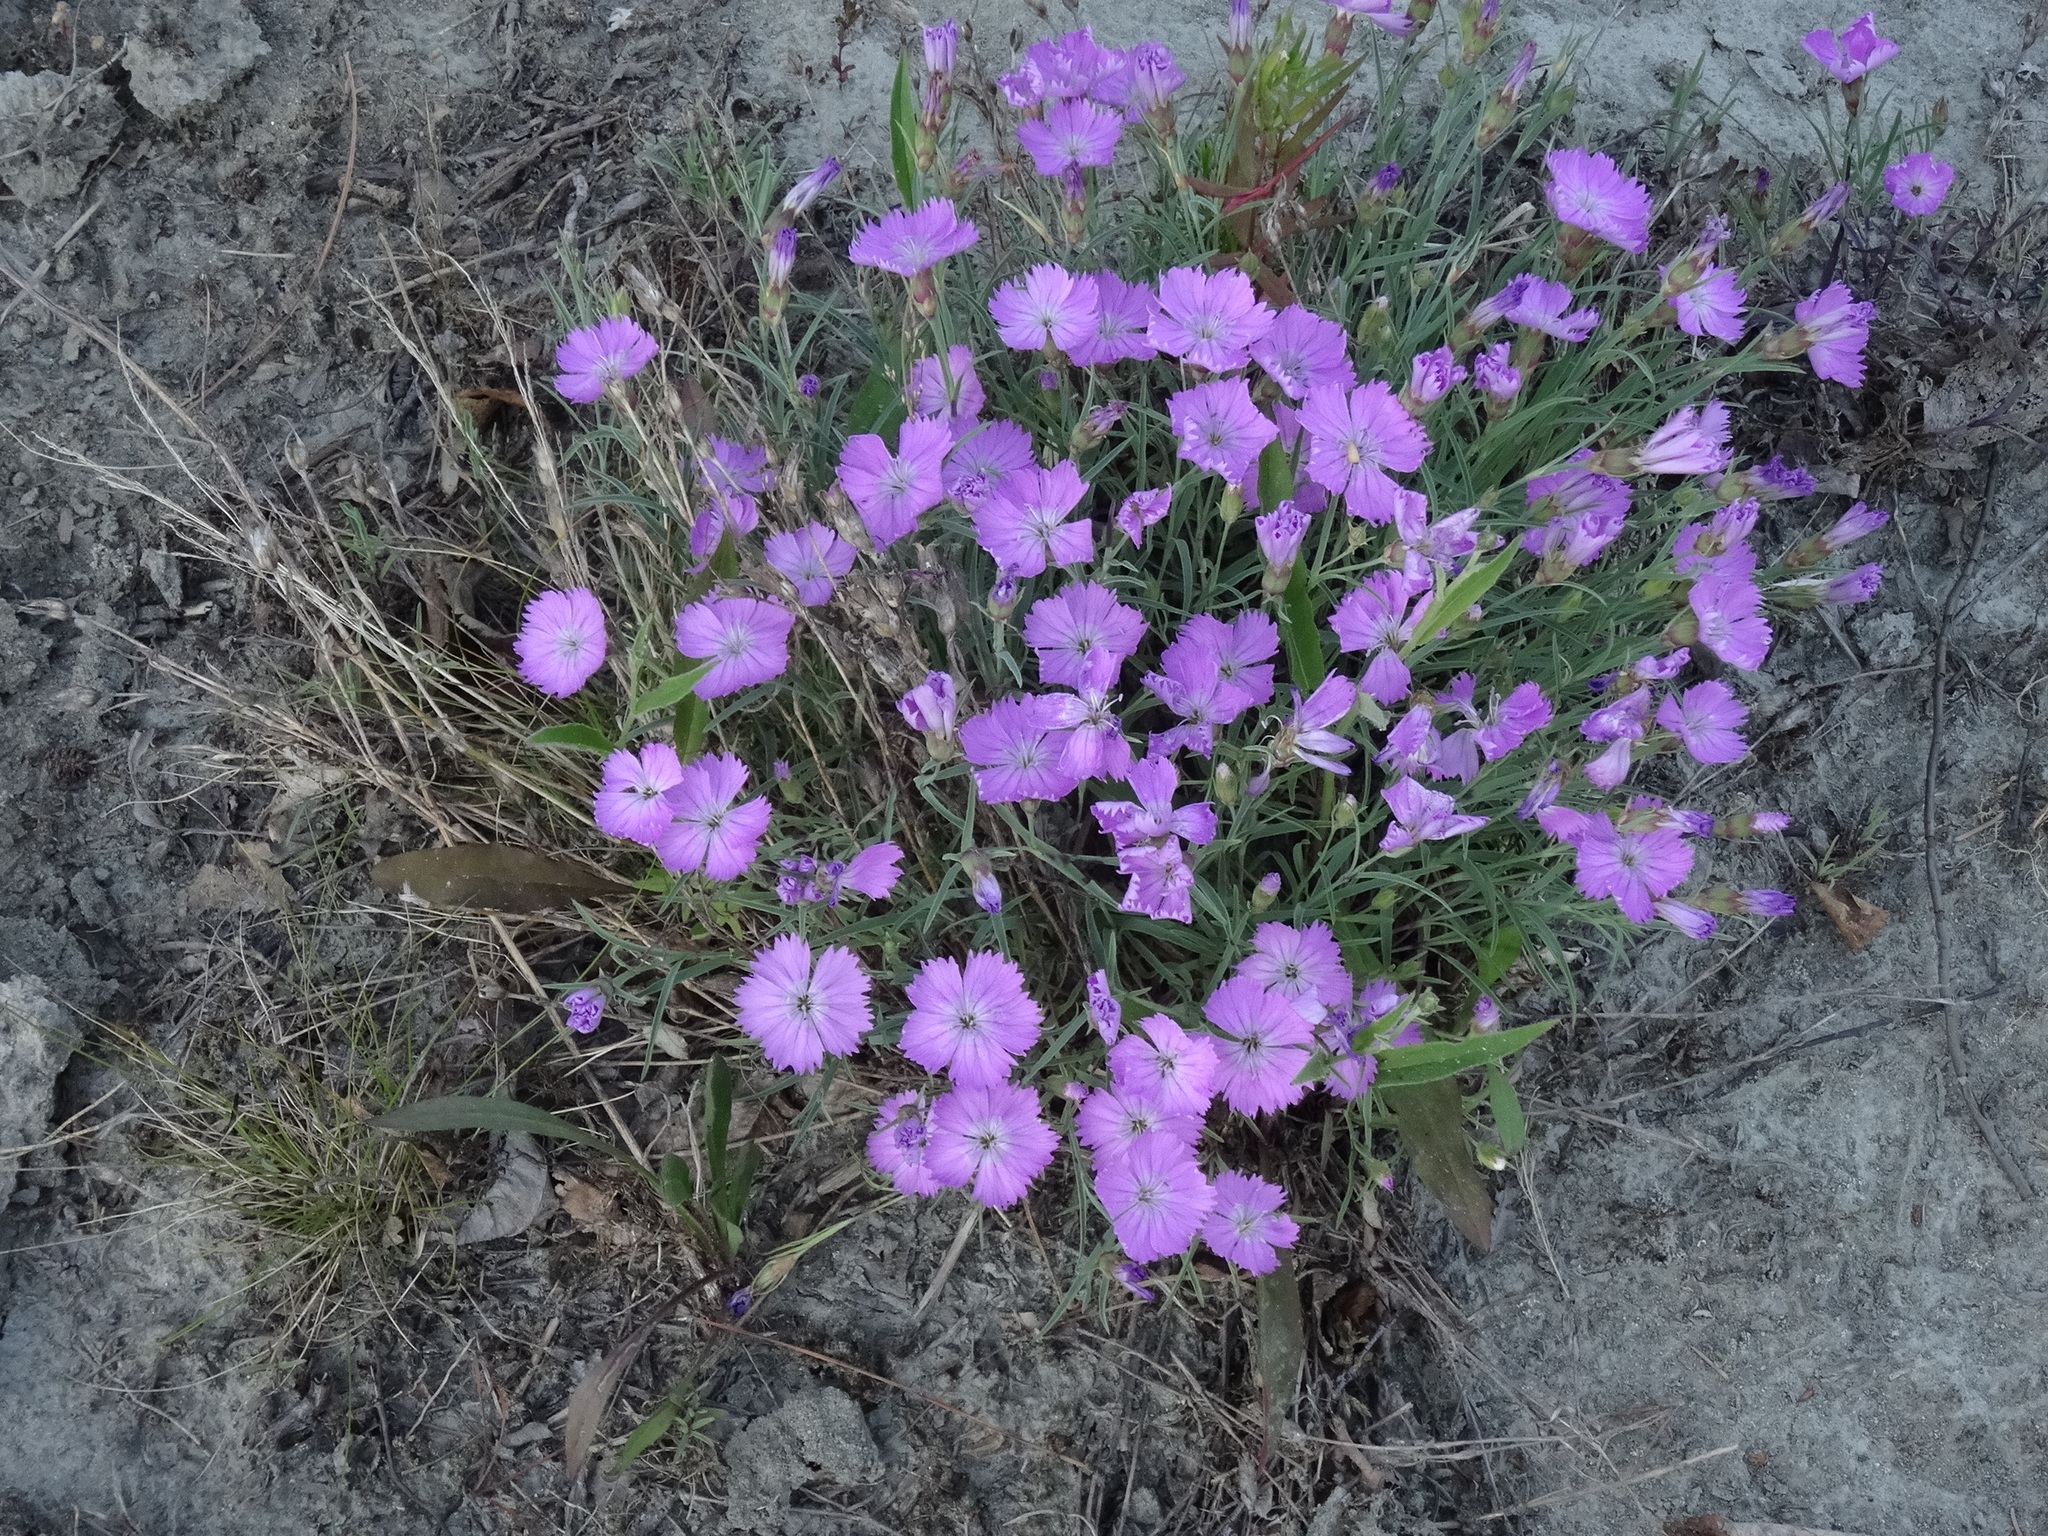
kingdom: Plantae
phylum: Tracheophyta
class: Magnoliopsida
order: Caryophyllales
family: Caryophyllaceae
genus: Dianthus
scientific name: Dianthus repens
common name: Northern pink
